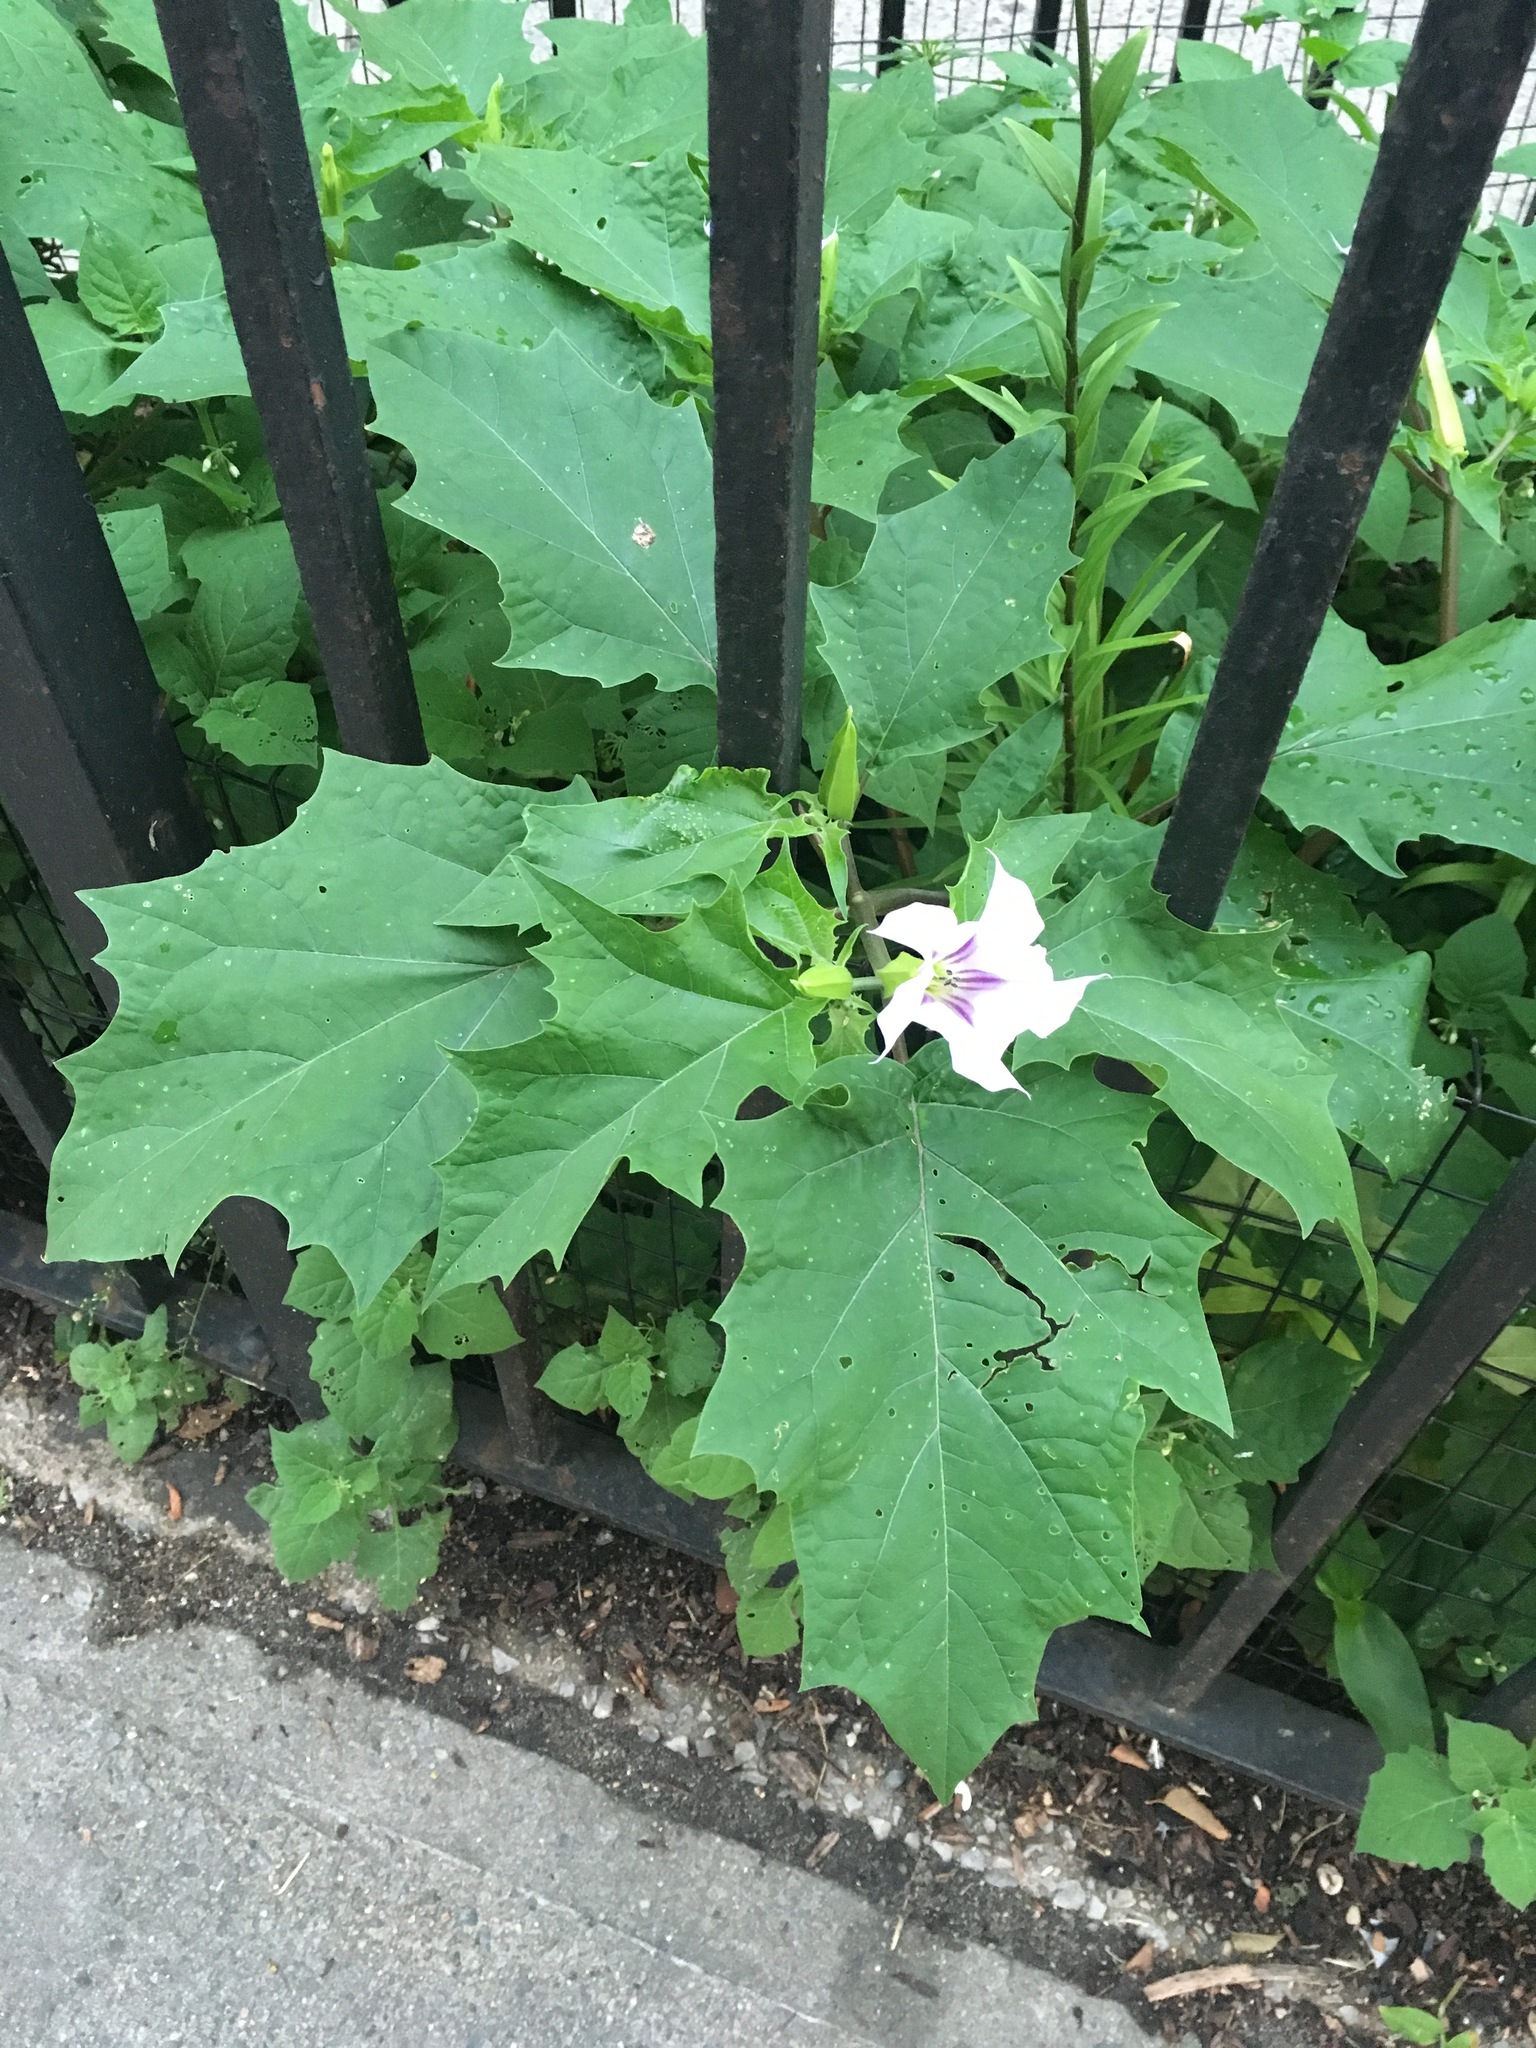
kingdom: Plantae
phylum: Tracheophyta
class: Magnoliopsida
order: Solanales
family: Solanaceae
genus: Datura
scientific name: Datura stramonium
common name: Thorn-apple
